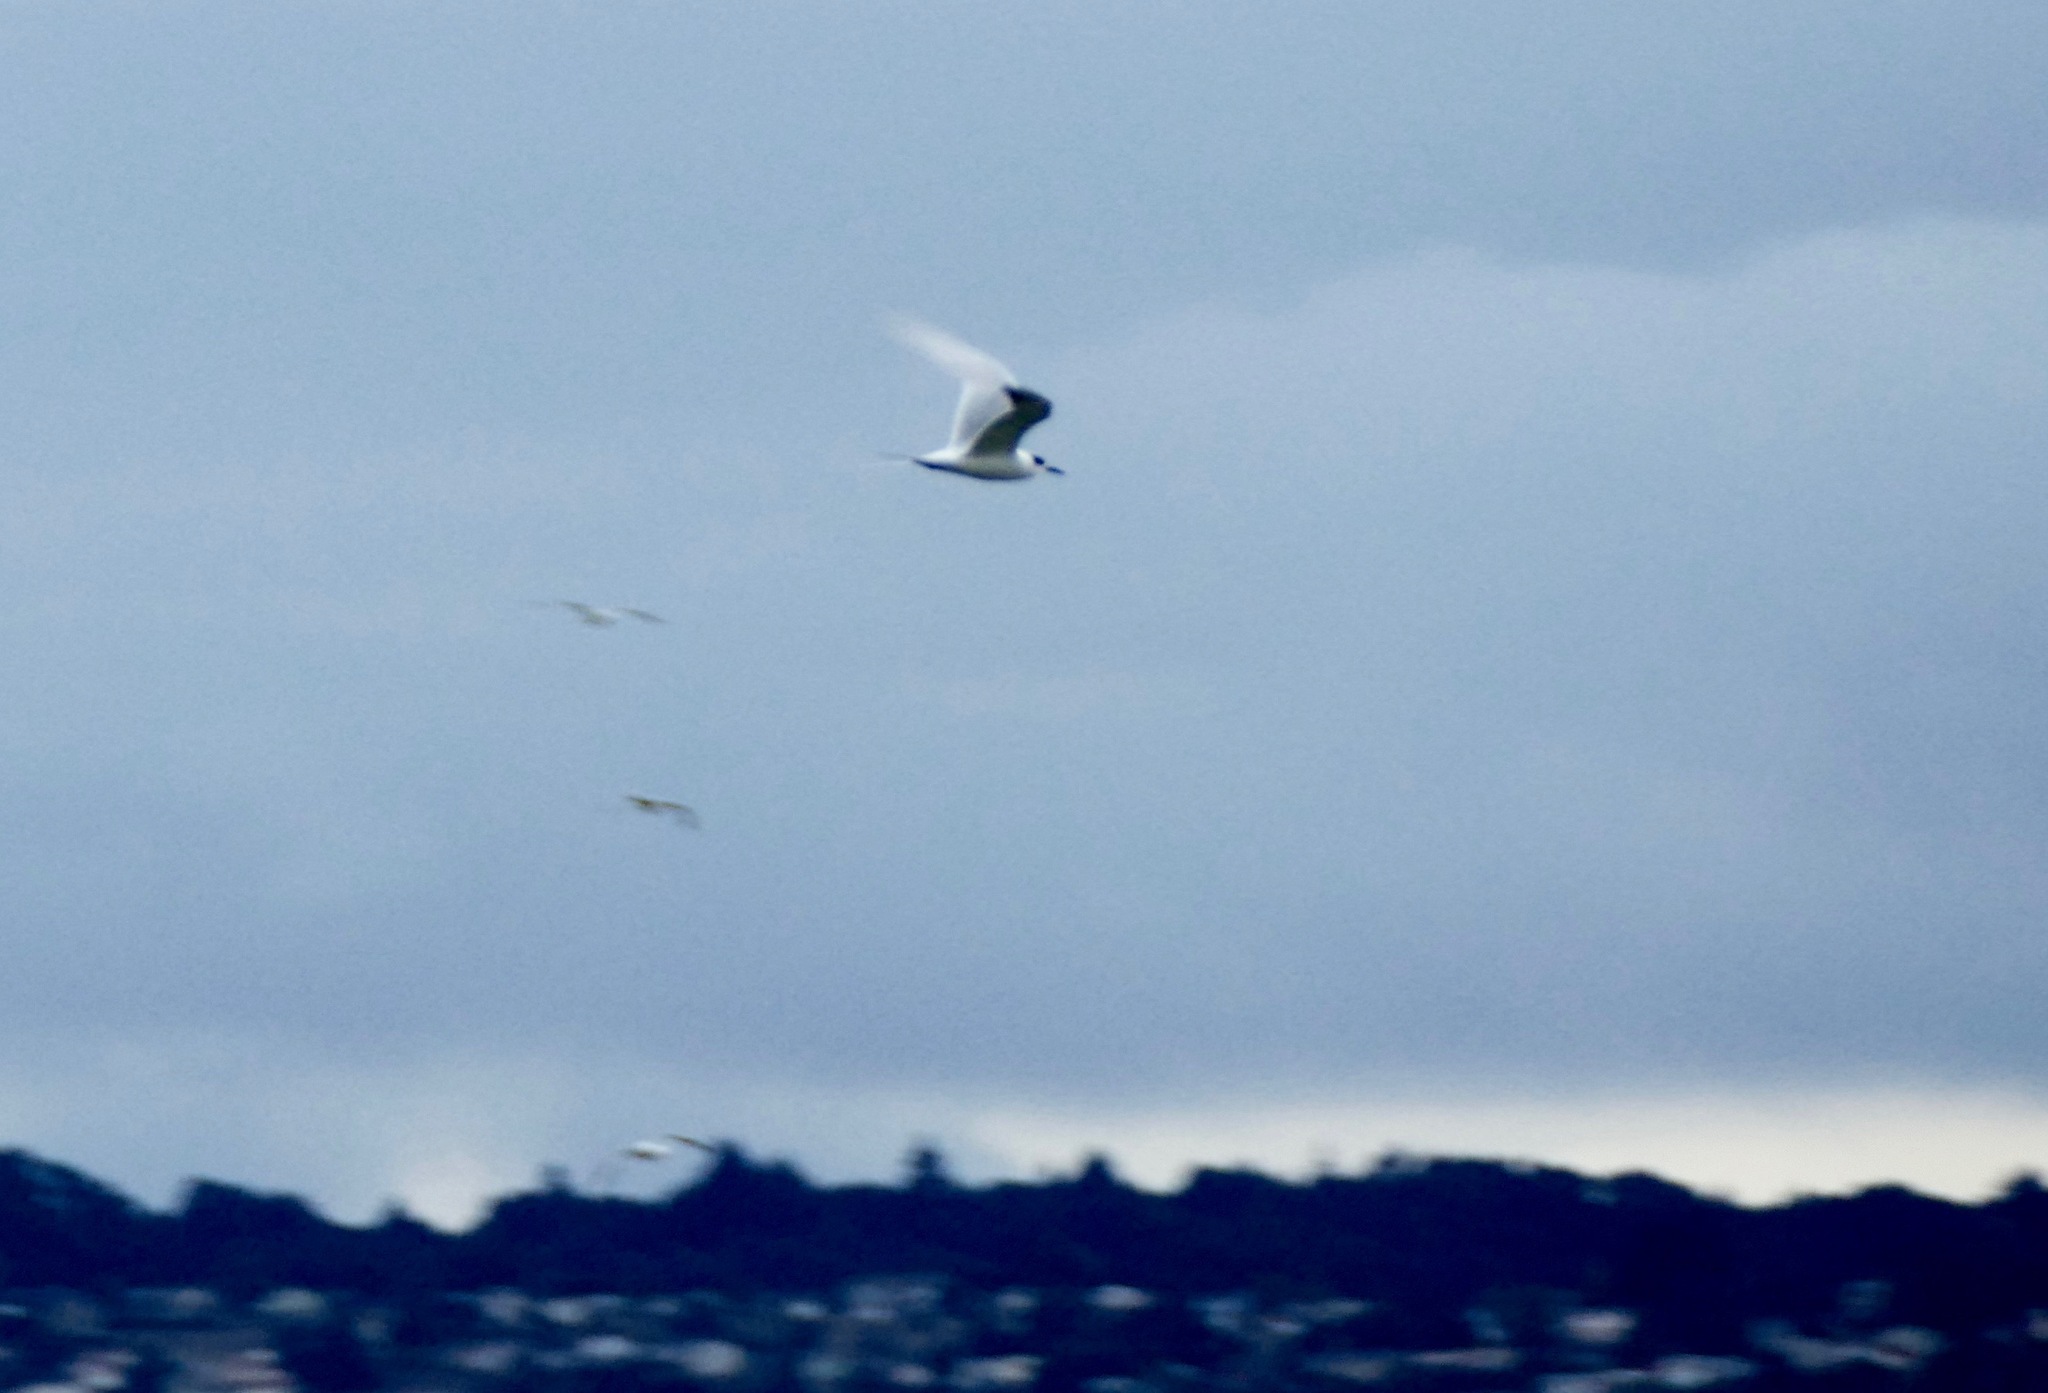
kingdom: Animalia
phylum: Chordata
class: Aves
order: Charadriiformes
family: Laridae
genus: Sterna
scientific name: Sterna forsteri
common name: Forster's tern
